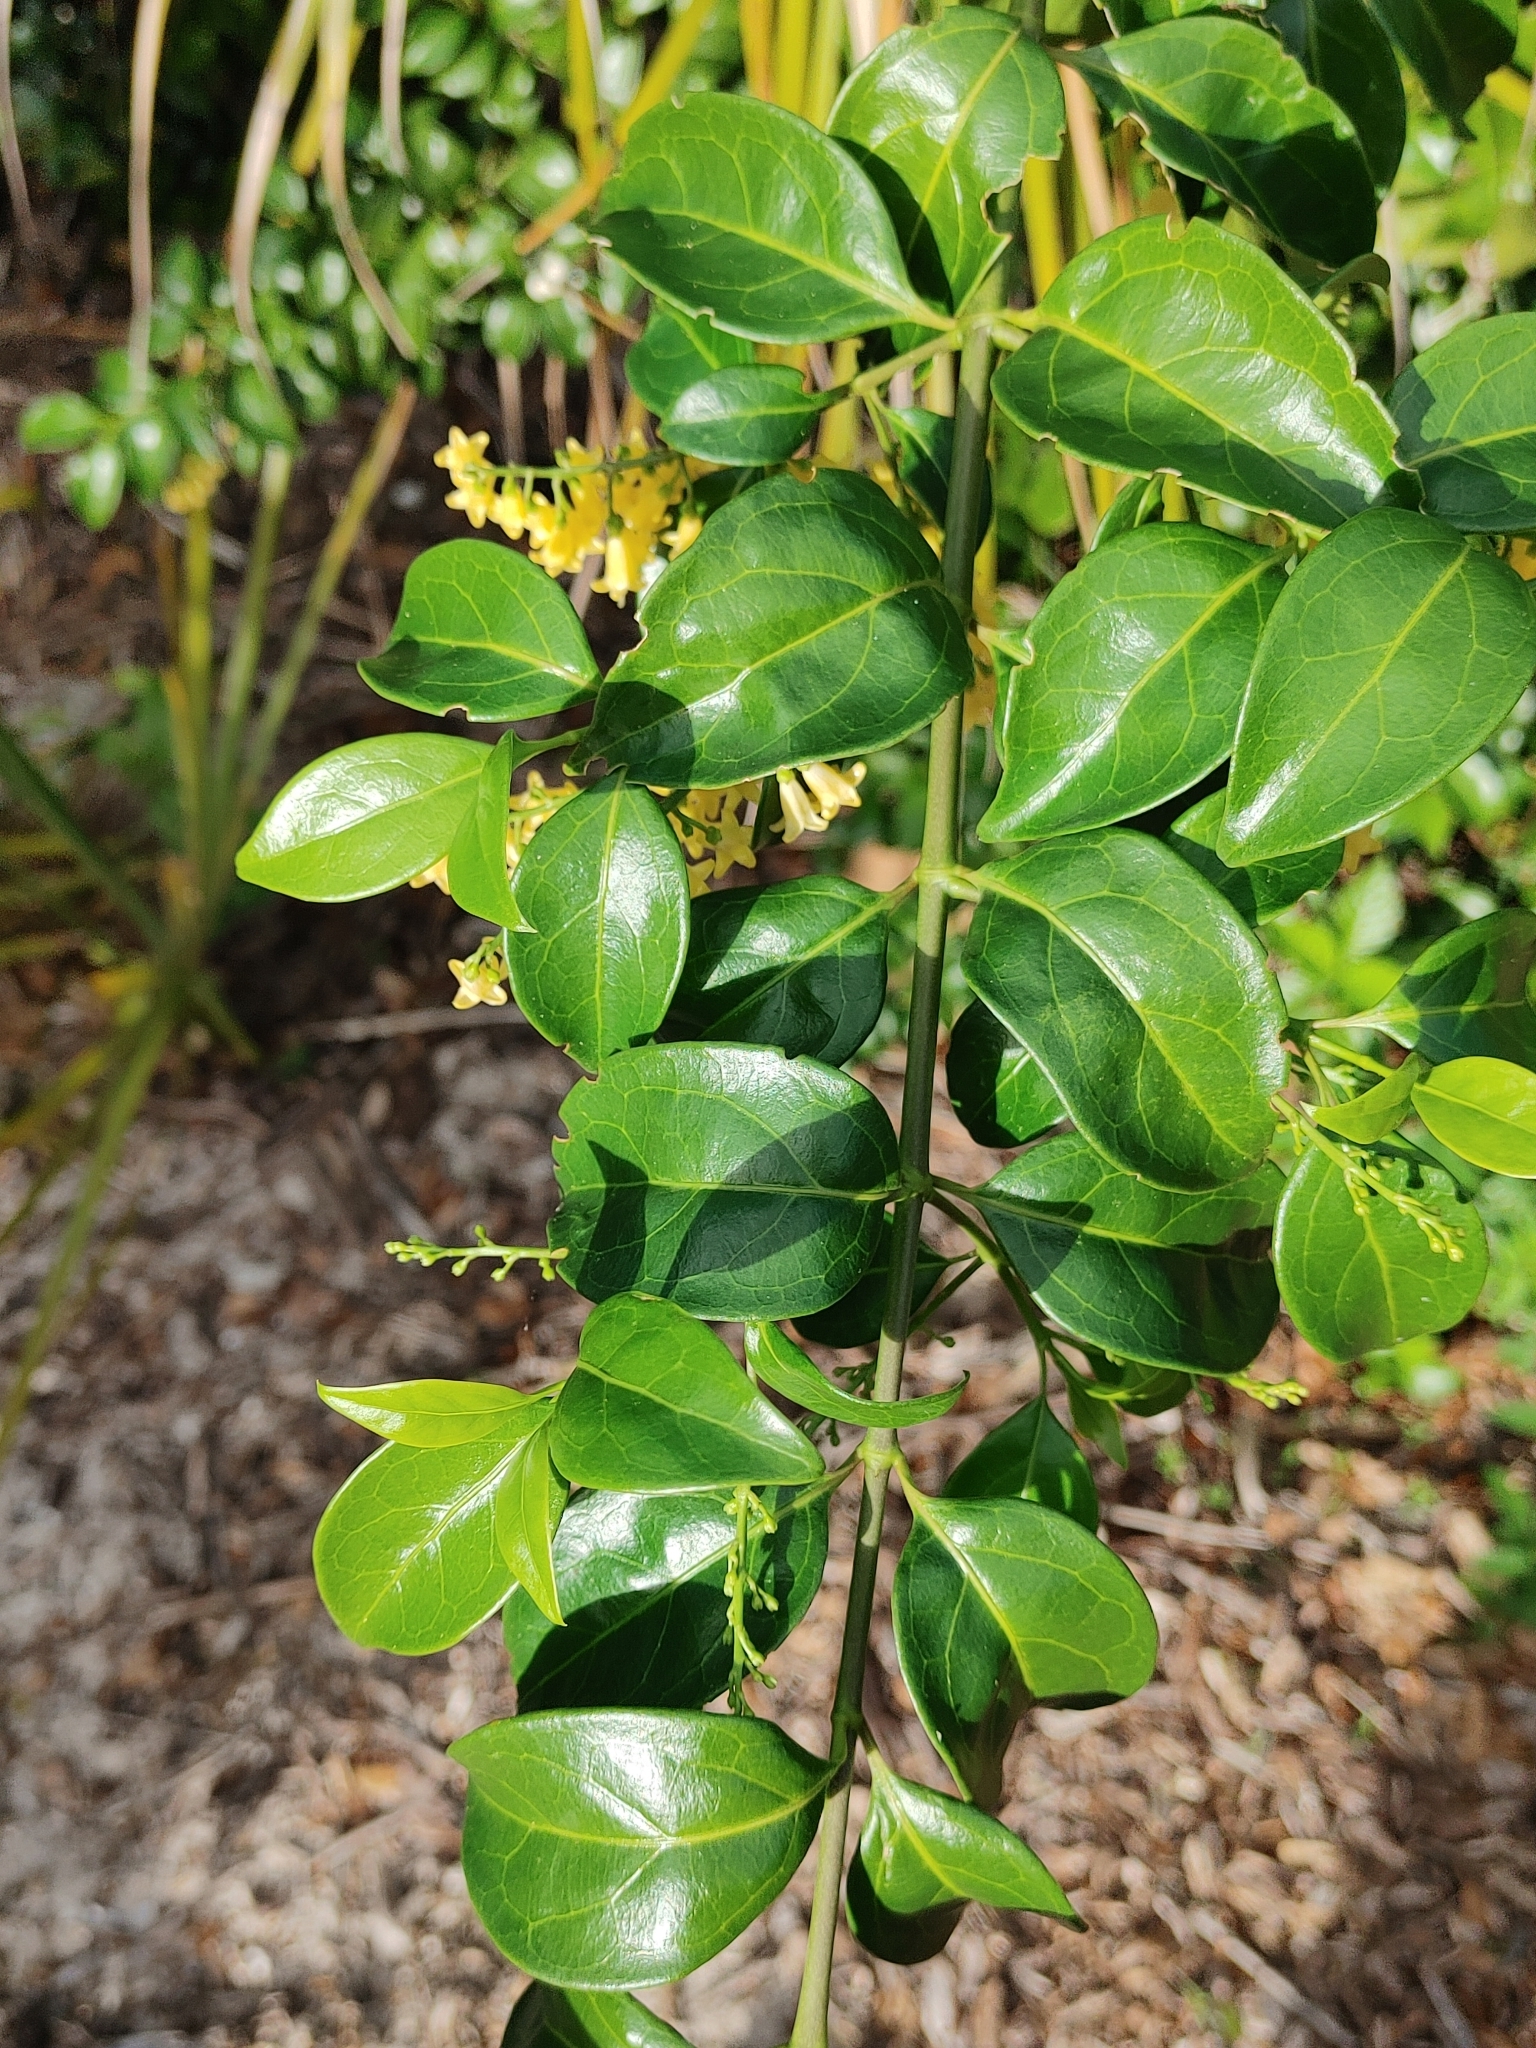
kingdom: Plantae
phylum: Tracheophyta
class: Magnoliopsida
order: Gentianales
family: Rubiaceae
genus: Chiococca
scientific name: Chiococca alba
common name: Snowberry
